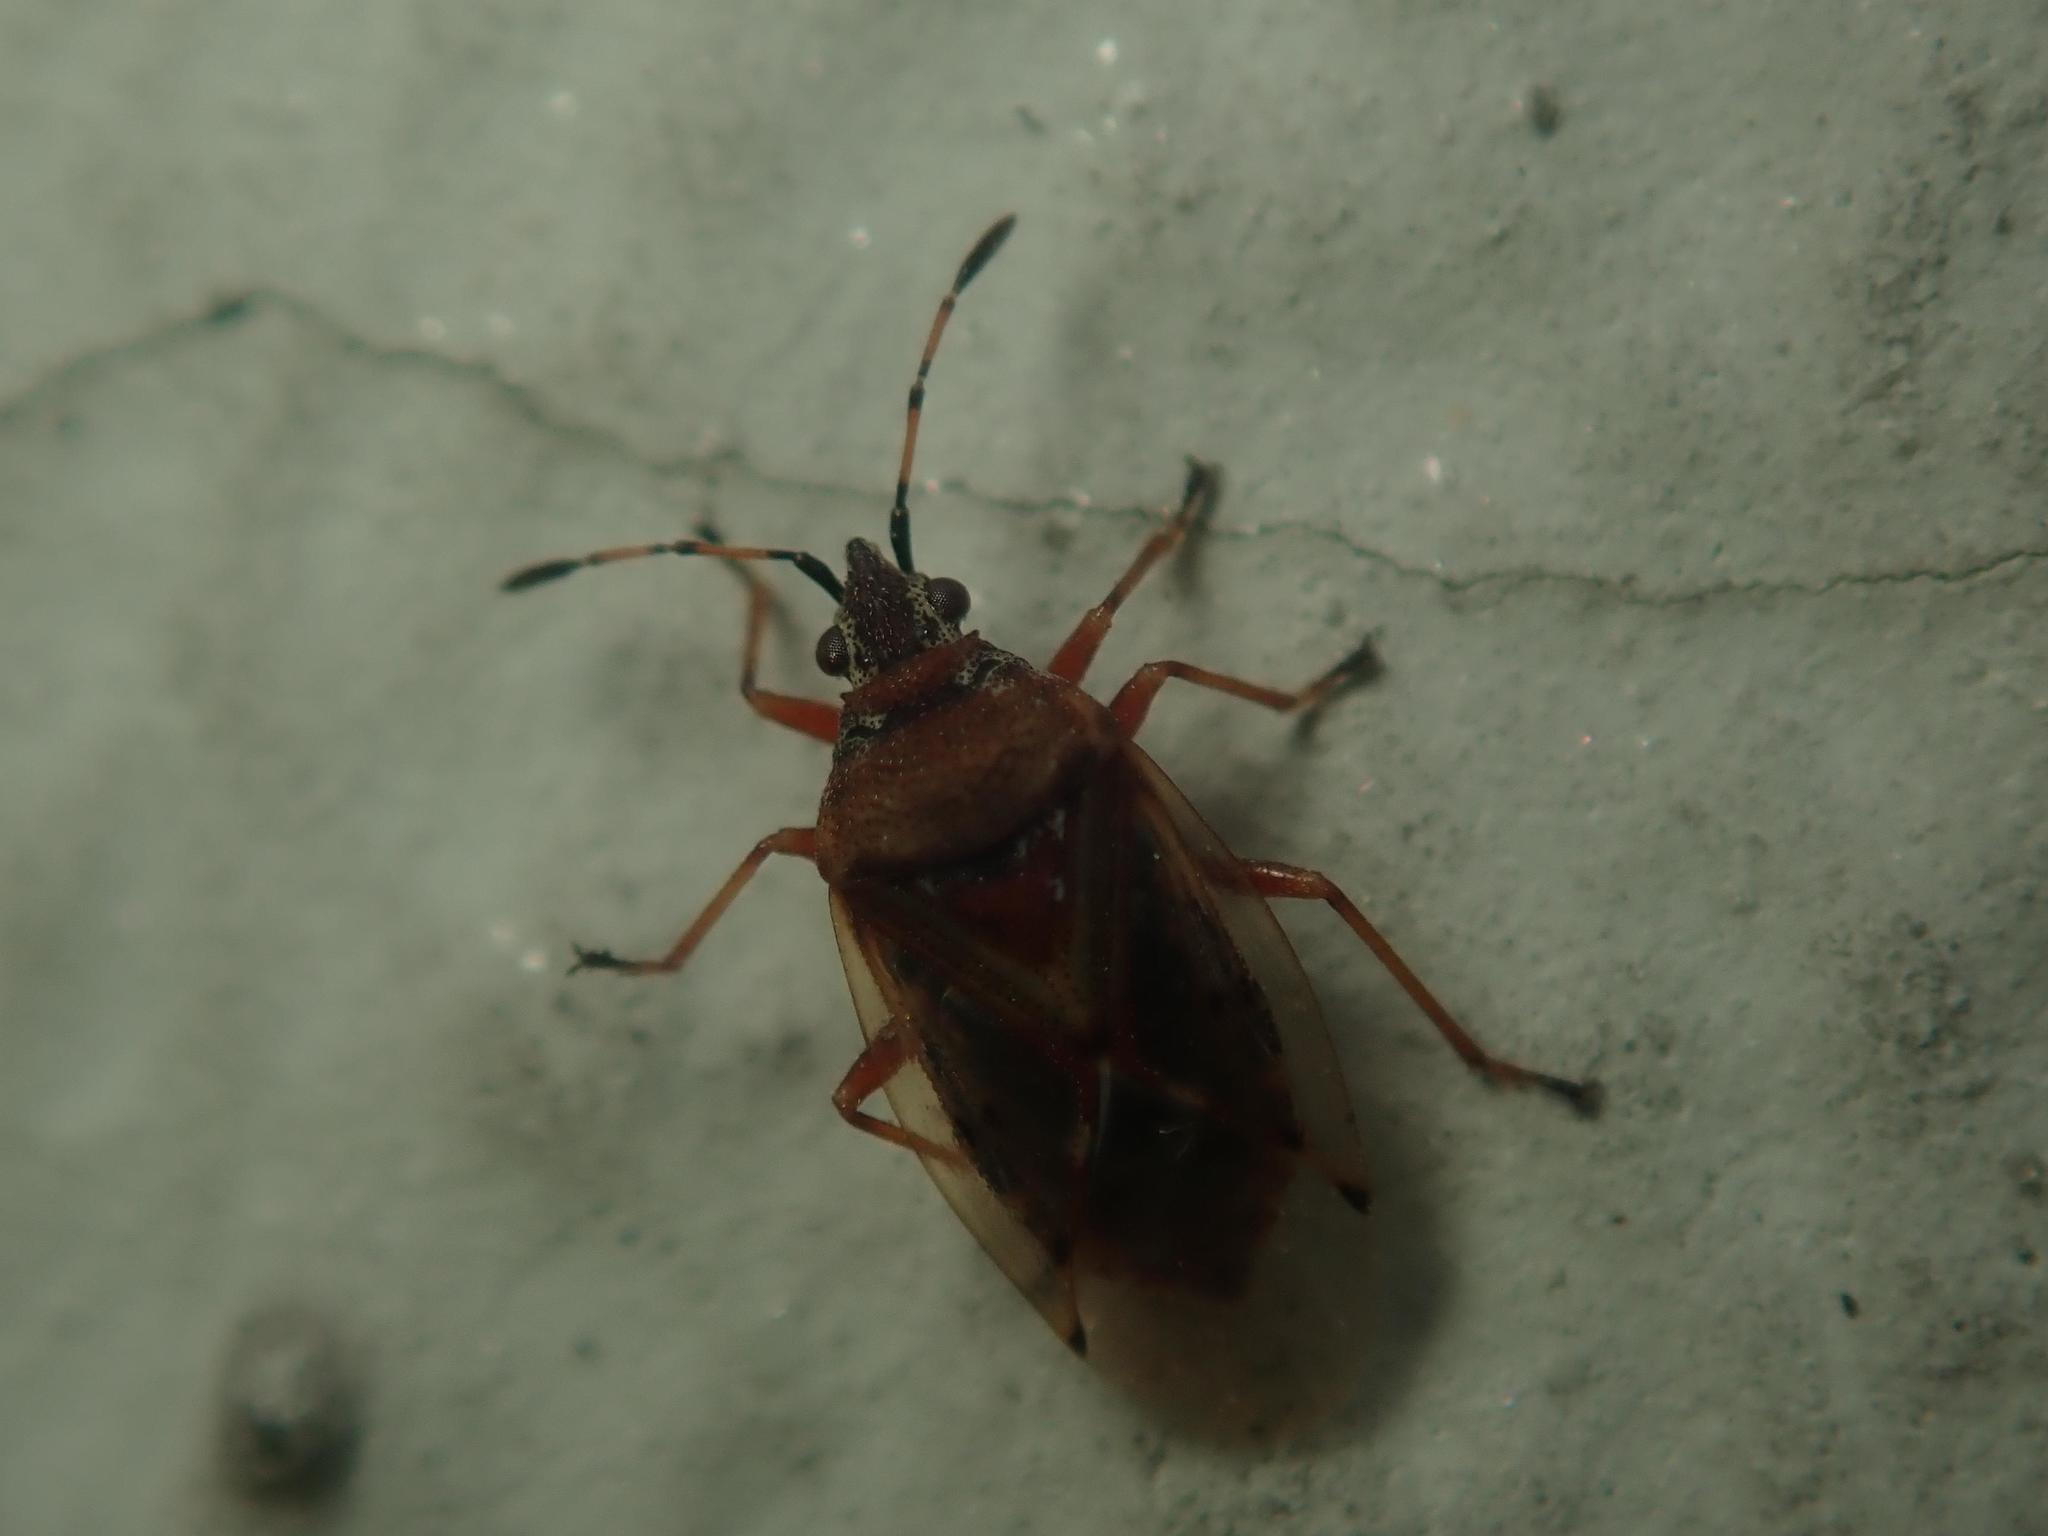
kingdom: Animalia
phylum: Arthropoda
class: Insecta
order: Hemiptera
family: Lygaeidae
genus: Kleidocerys
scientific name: Kleidocerys resedae
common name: Birch catkin bug
